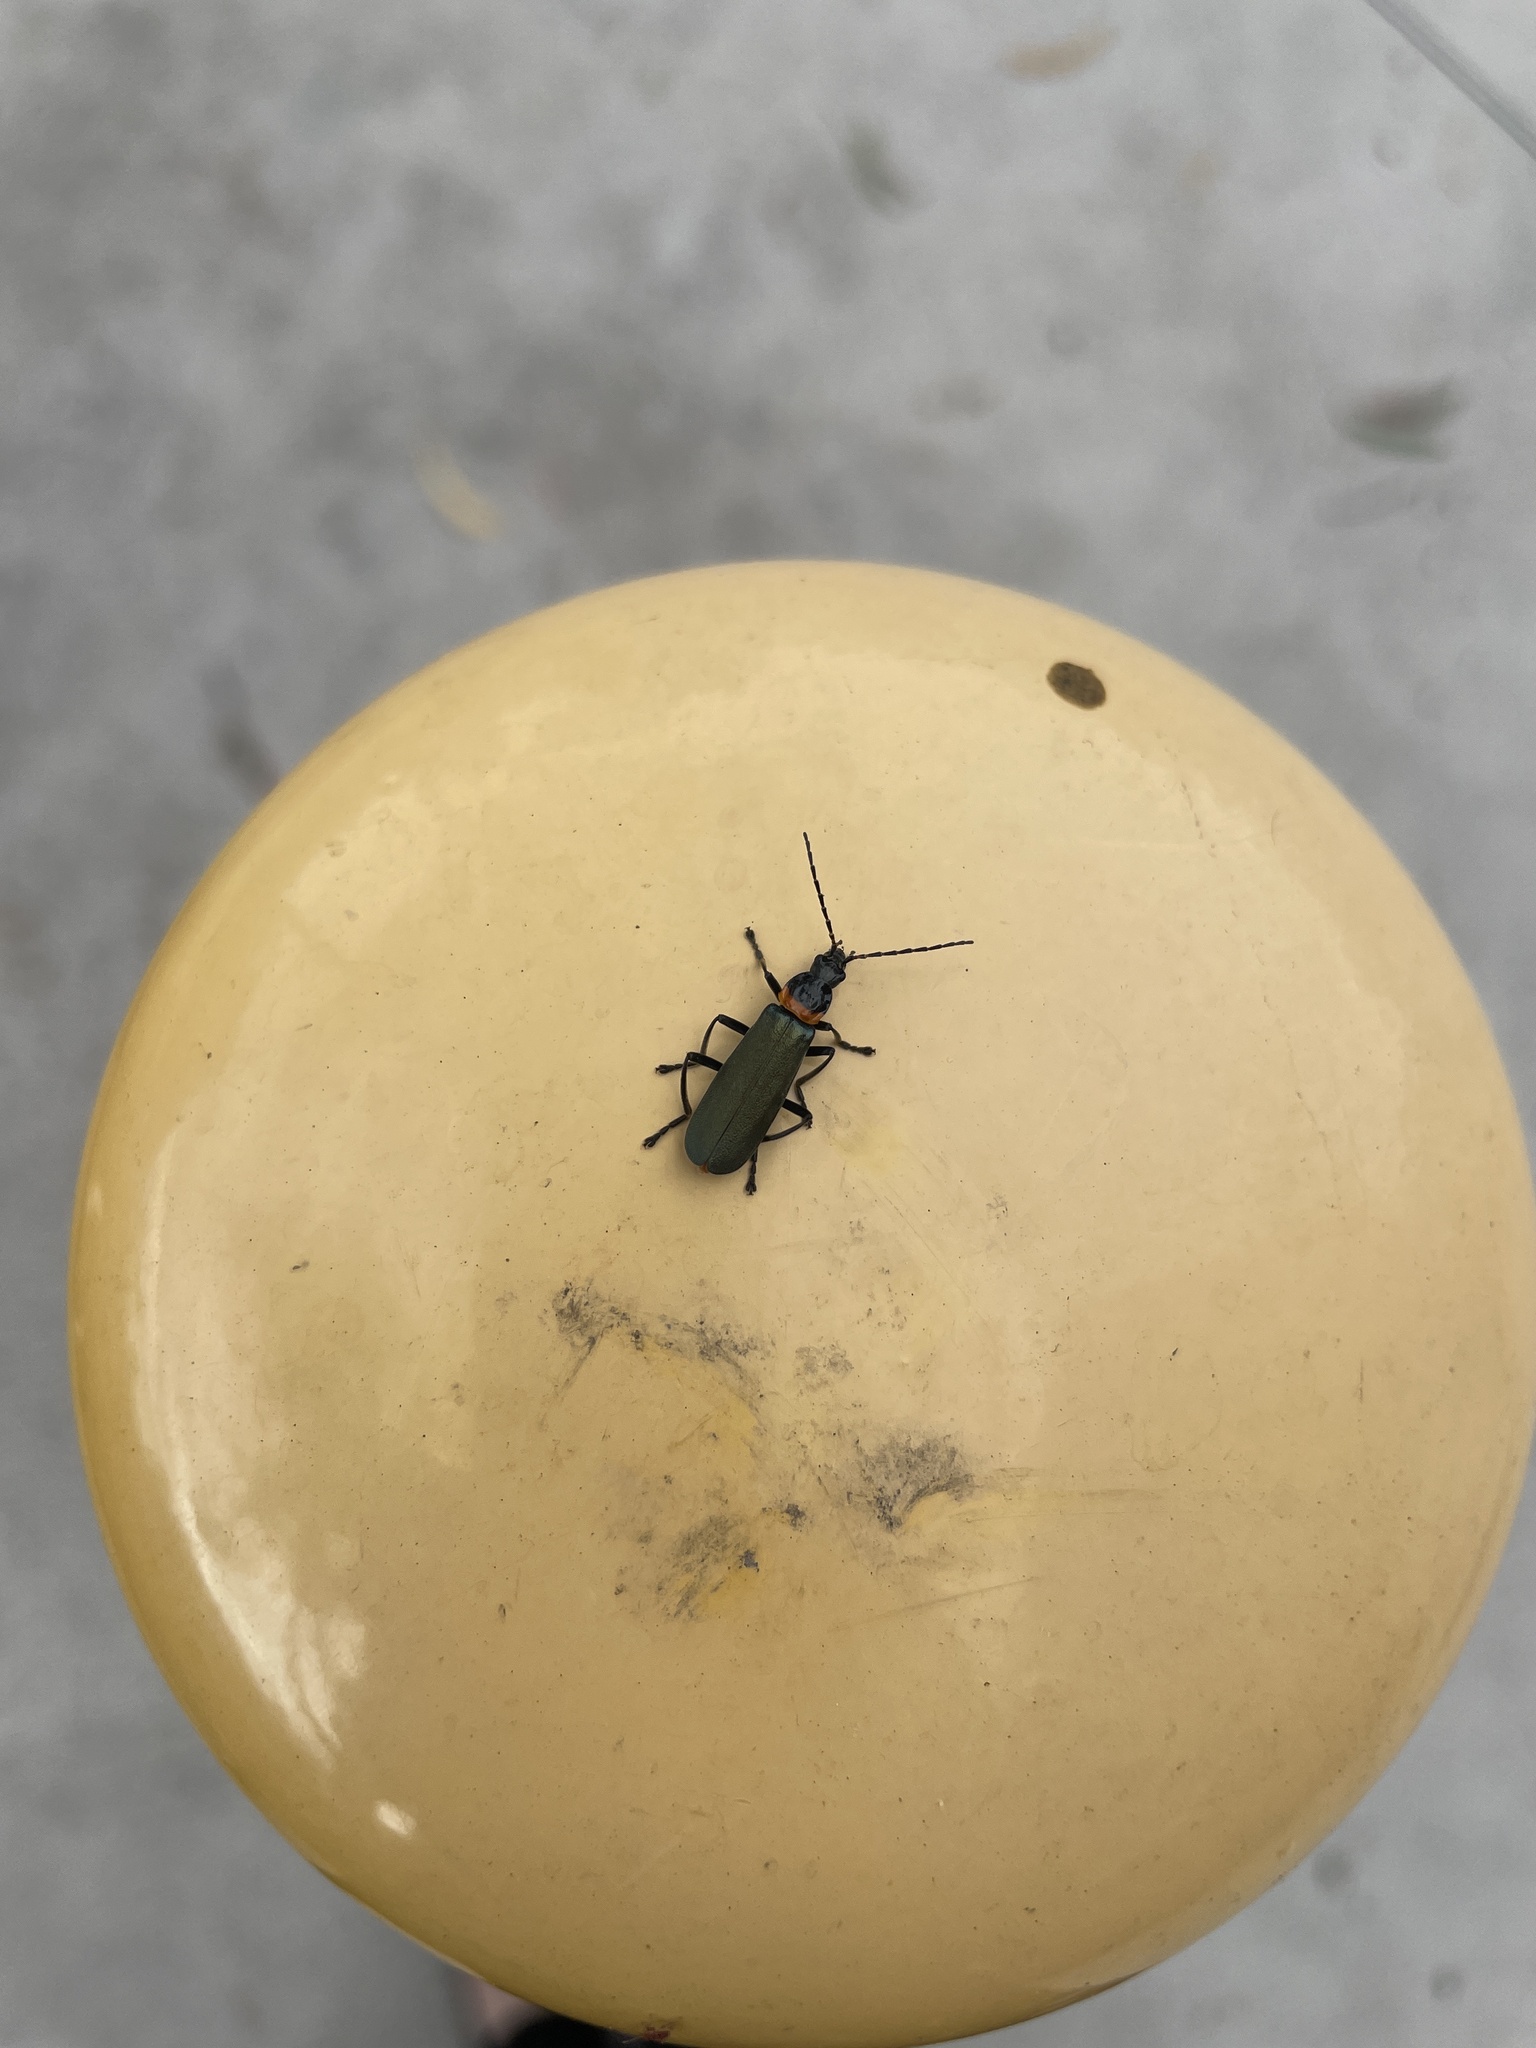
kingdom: Animalia
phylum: Arthropoda
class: Insecta
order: Coleoptera
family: Cantharidae
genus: Chauliognathus
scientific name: Chauliognathus
